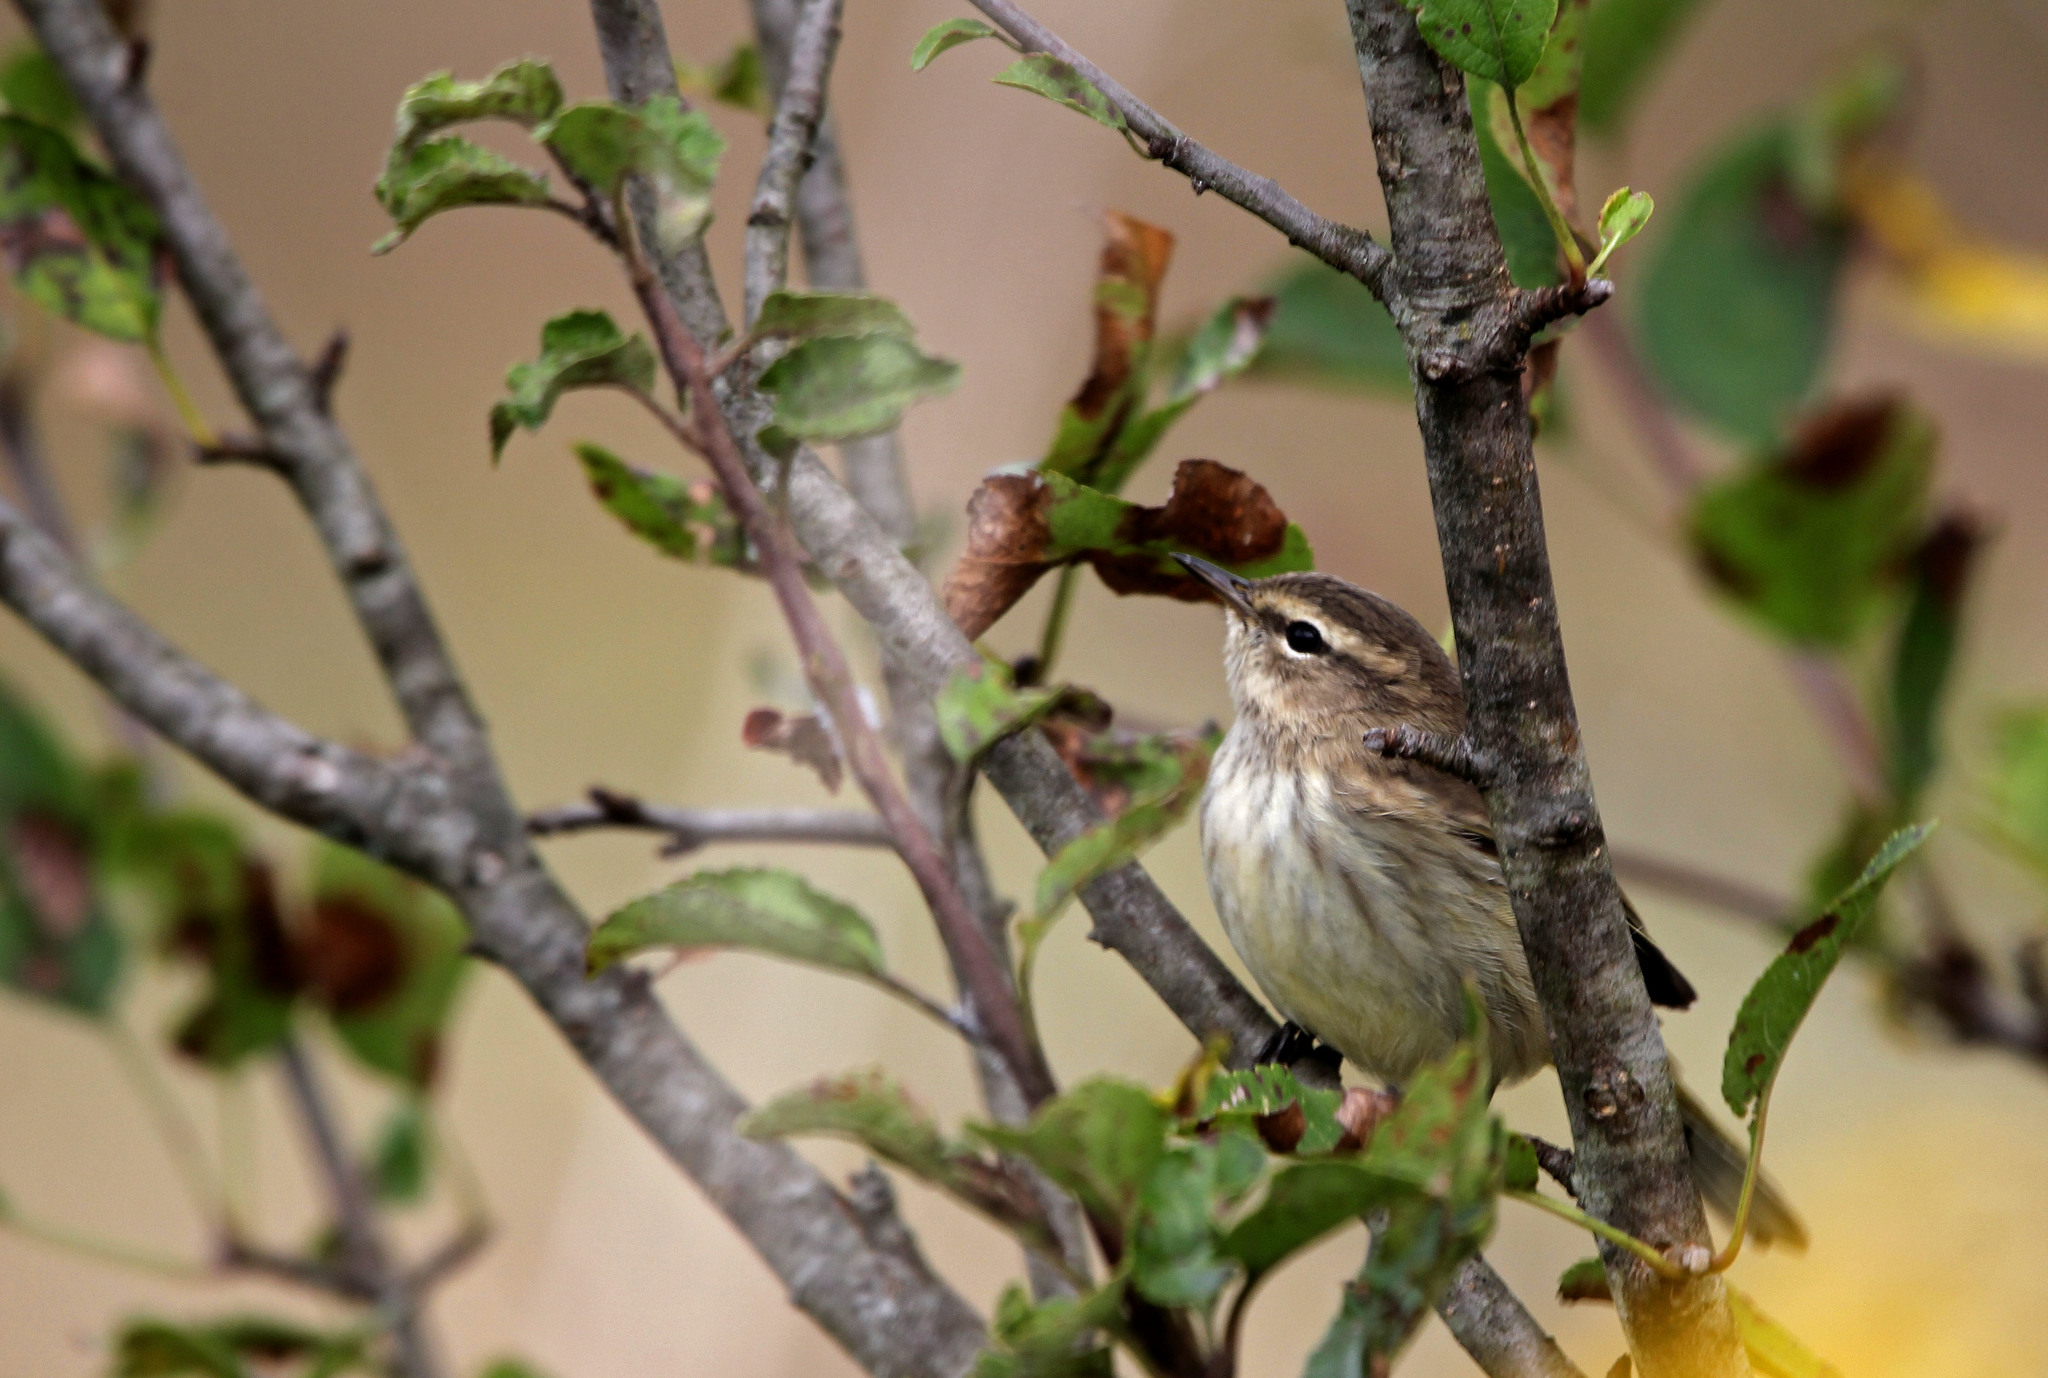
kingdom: Animalia
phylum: Chordata
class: Aves
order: Passeriformes
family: Parulidae
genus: Setophaga
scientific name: Setophaga palmarum
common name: Palm warbler
